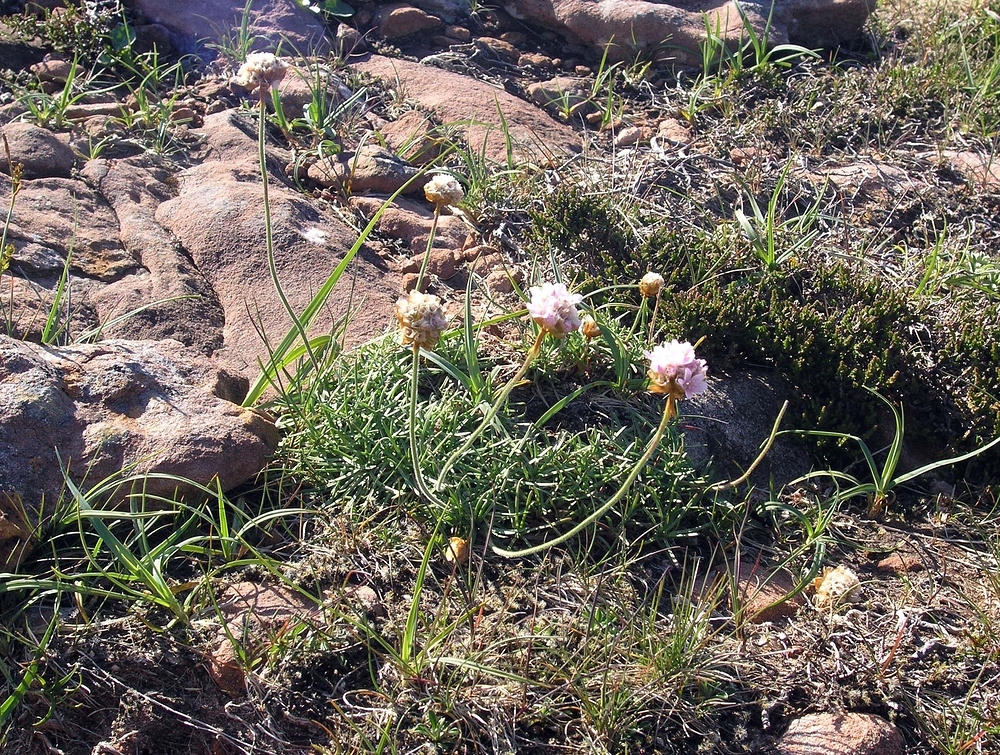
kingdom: Plantae
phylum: Tracheophyta
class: Magnoliopsida
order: Caryophyllales
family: Plumbaginaceae
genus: Armeria
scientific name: Armeria maritima
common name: Thrift
